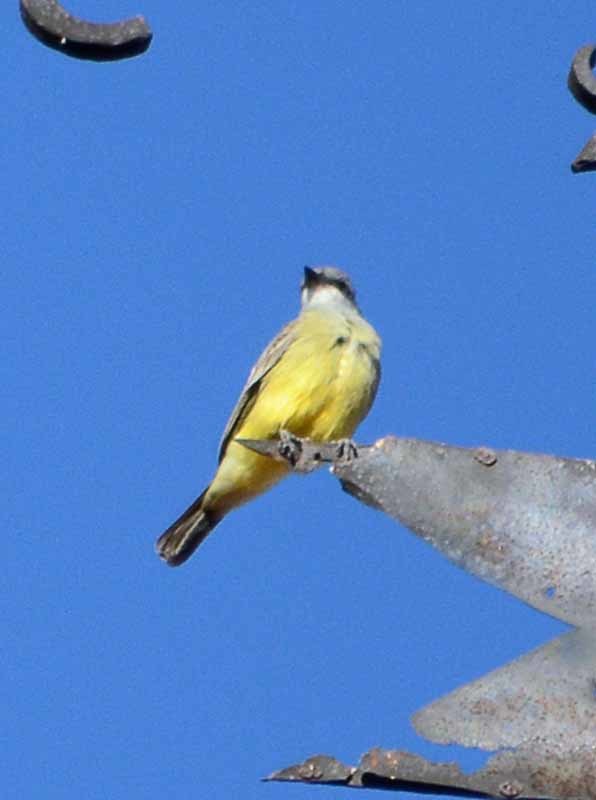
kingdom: Animalia
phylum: Chordata
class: Aves
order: Passeriformes
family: Tyrannidae
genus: Tyrannus
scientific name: Tyrannus vociferans
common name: Cassin's kingbird
